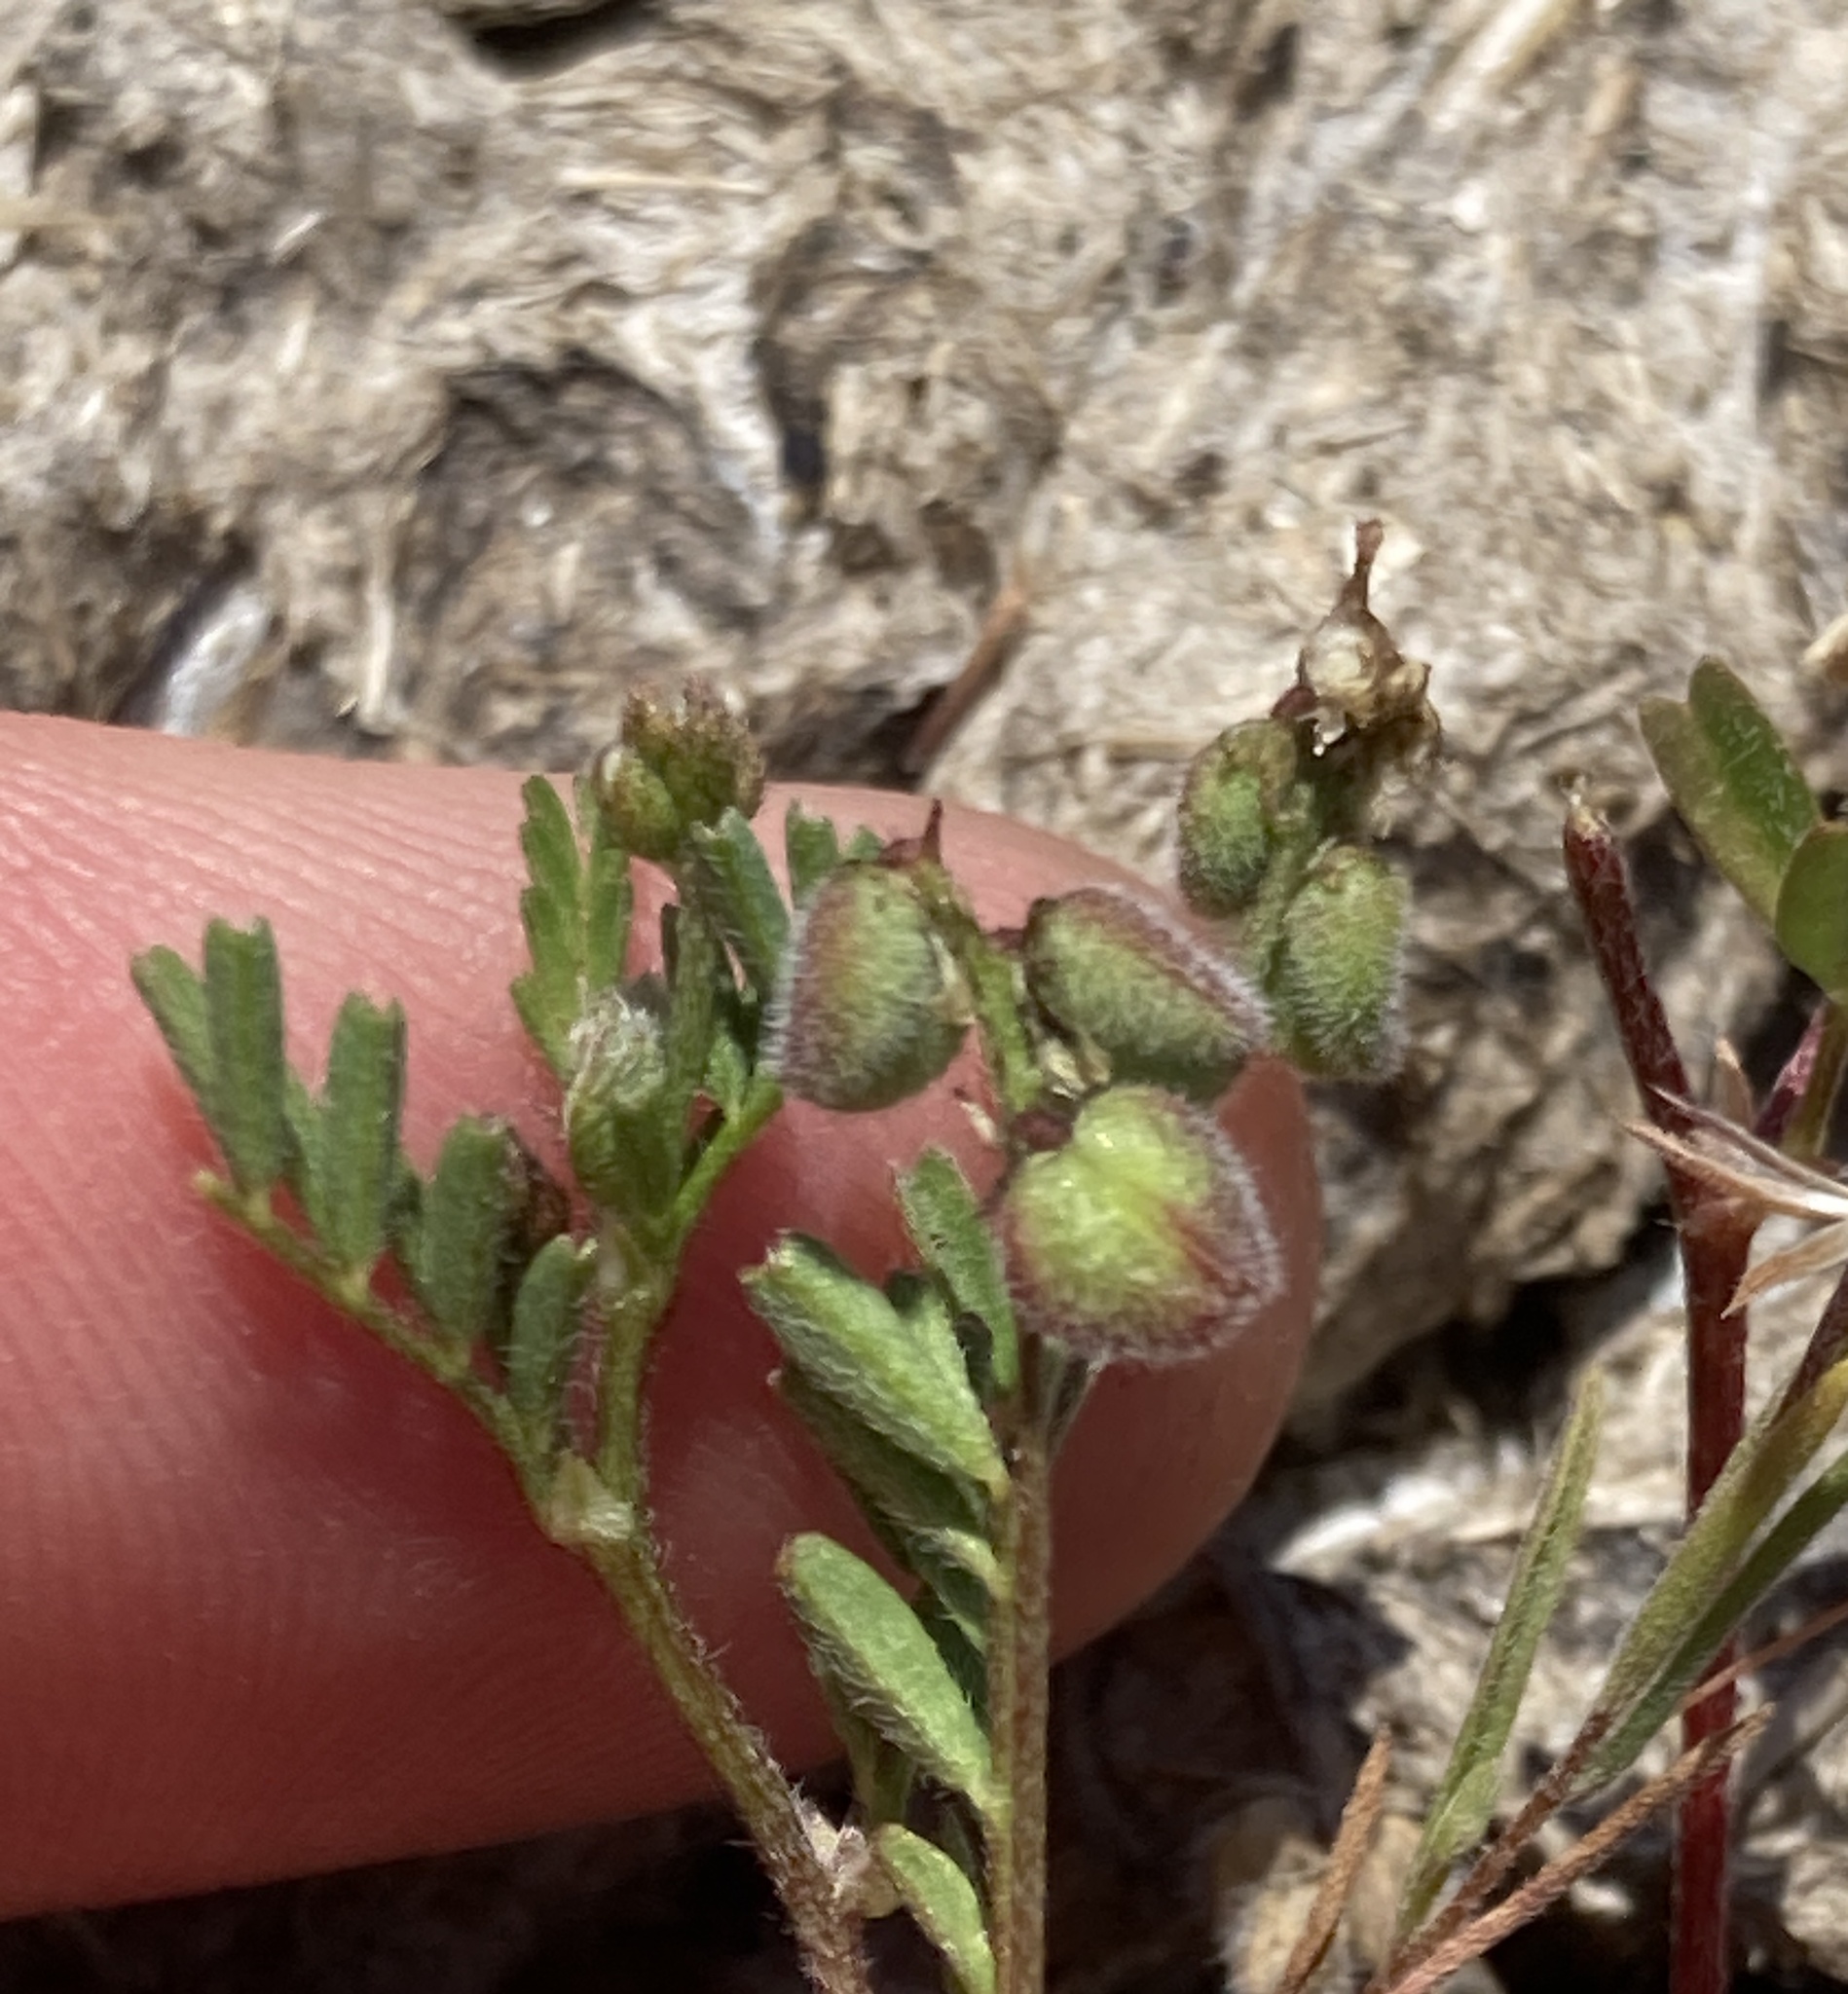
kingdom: Plantae
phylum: Tracheophyta
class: Magnoliopsida
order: Fabales
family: Fabaceae
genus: Astragalus
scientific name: Astragalus gambelianus
